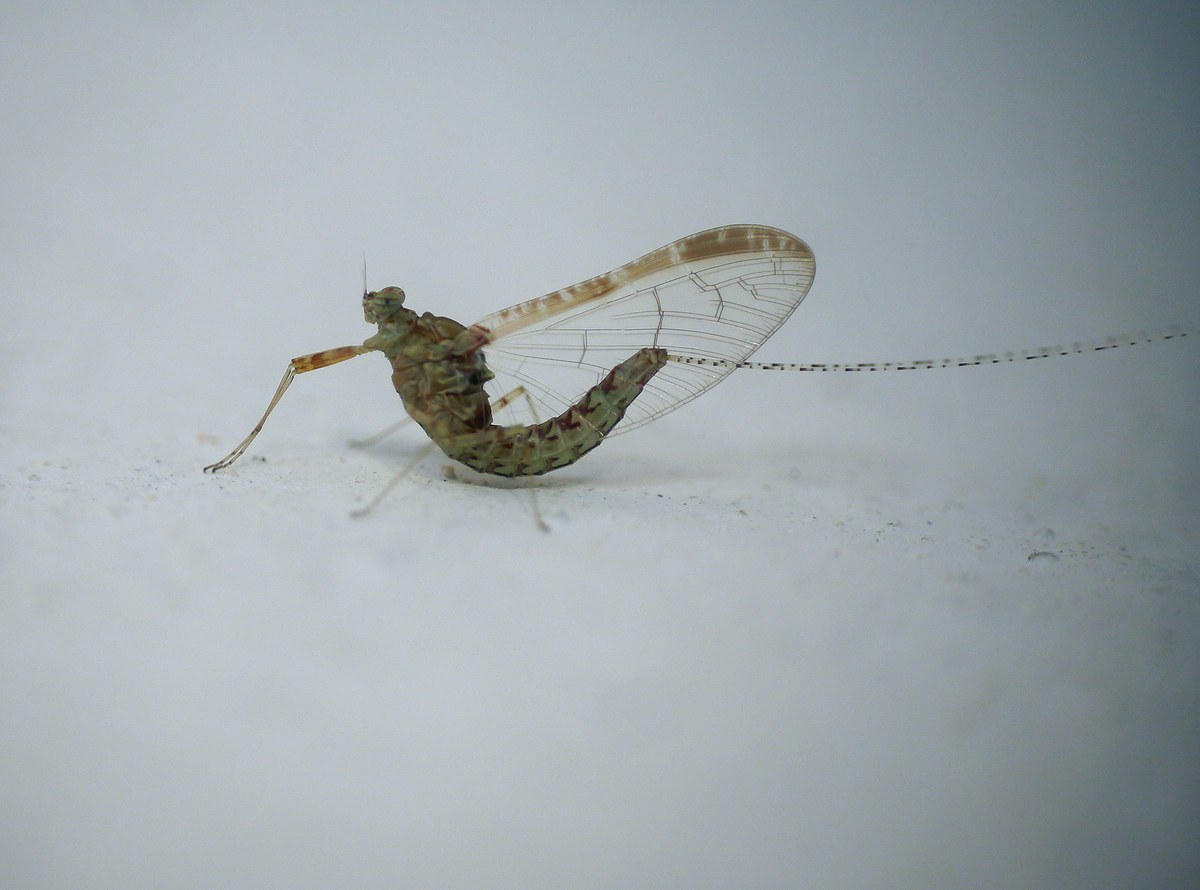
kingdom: Animalia
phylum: Arthropoda
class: Insecta
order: Ephemeroptera
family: Baetidae
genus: Cloeon
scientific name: Cloeon dipterum
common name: Pond olive
